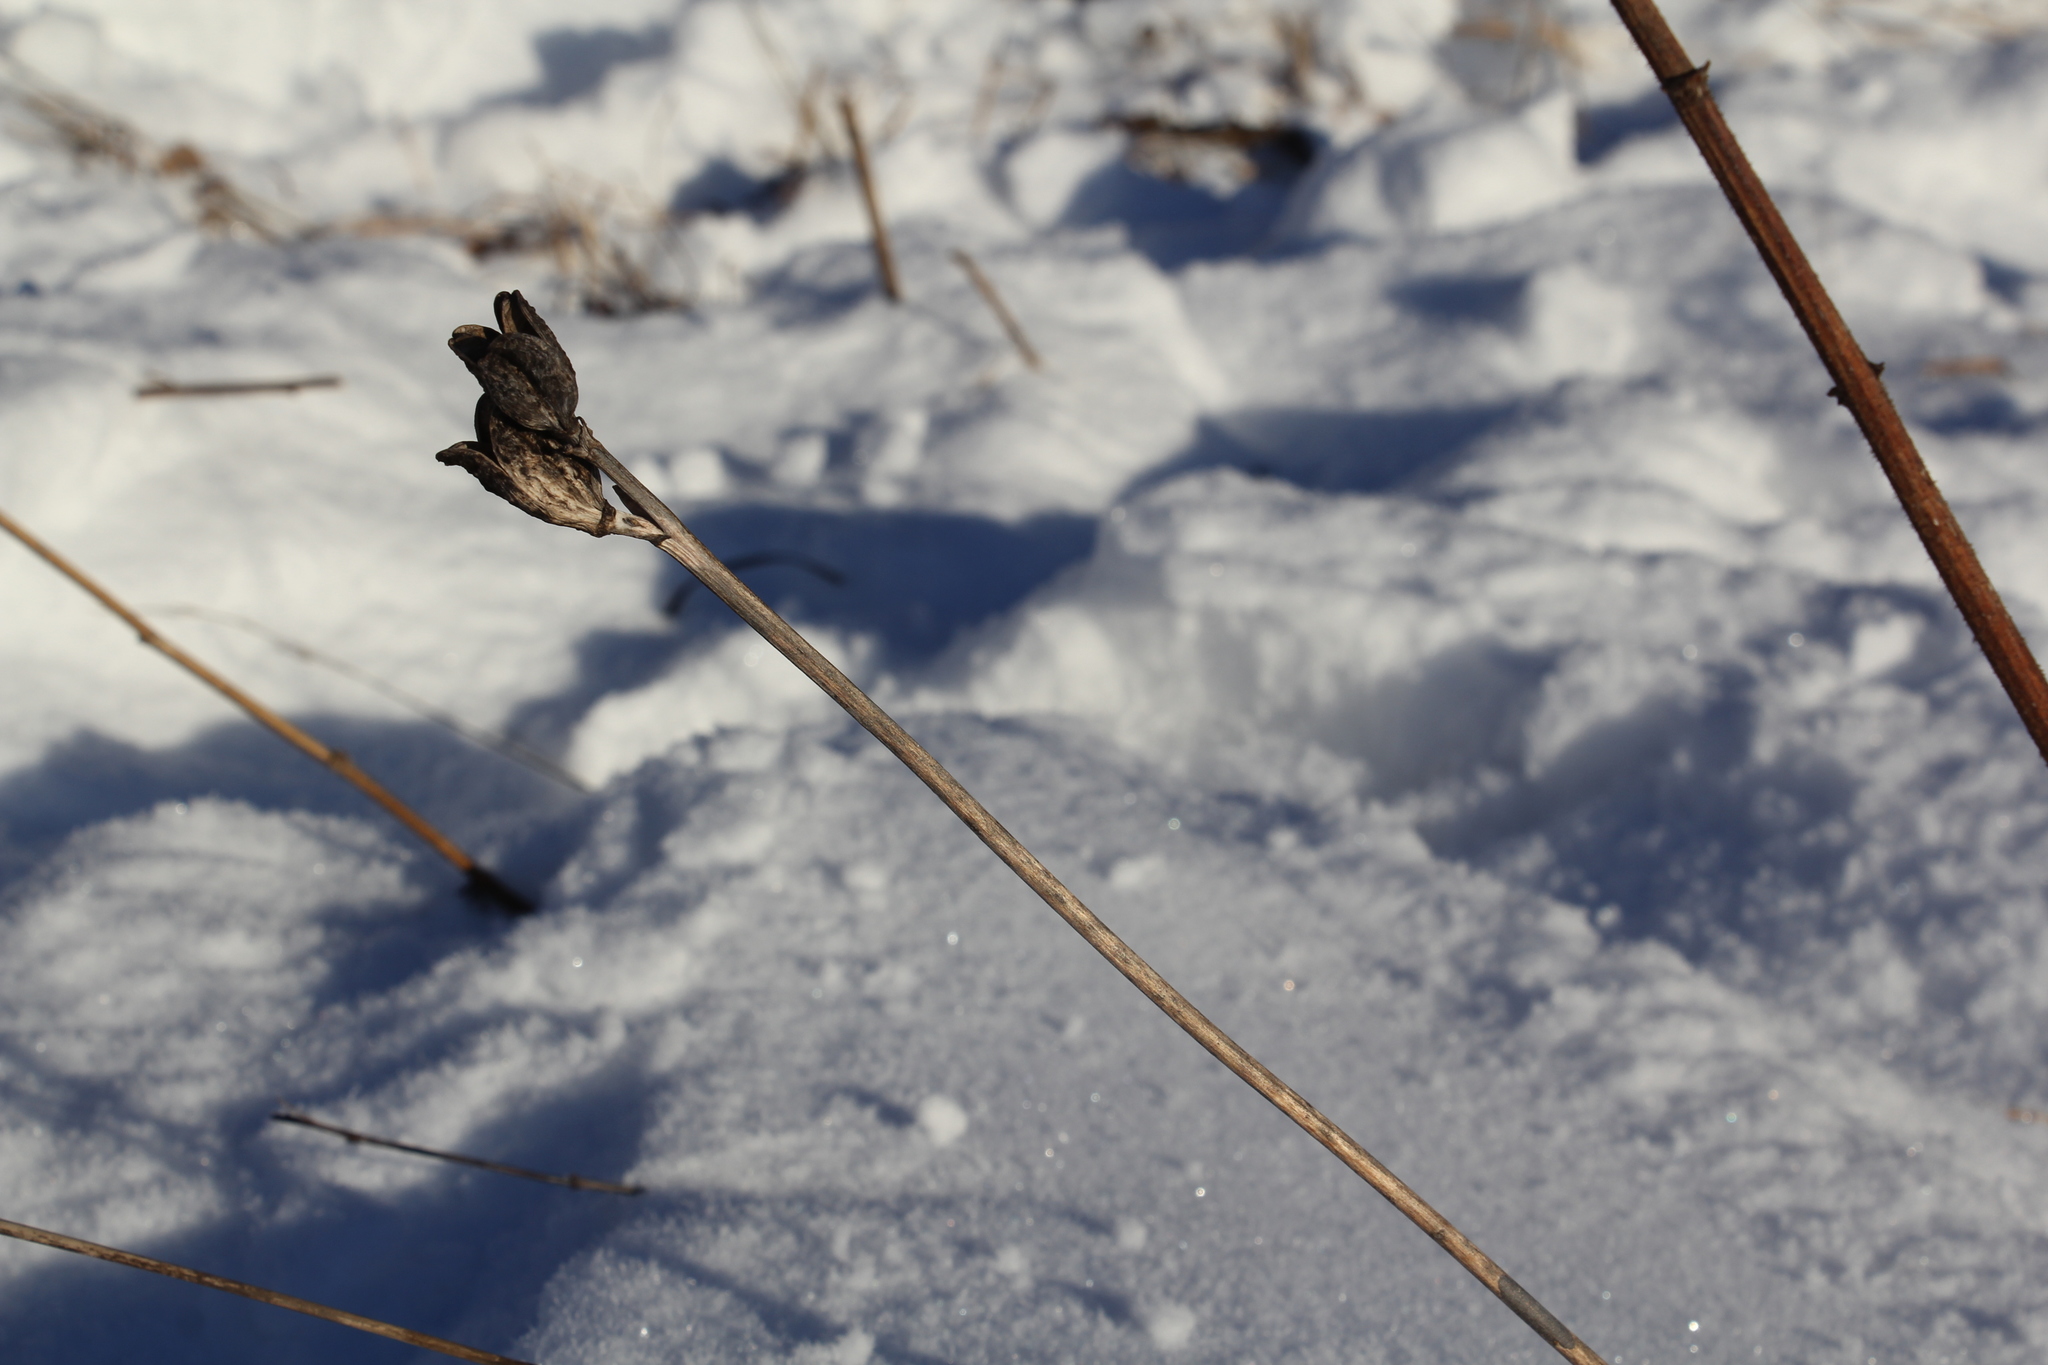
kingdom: Plantae
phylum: Tracheophyta
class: Liliopsida
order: Asparagales
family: Asphodelaceae
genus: Hemerocallis
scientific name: Hemerocallis minor
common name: Small daylily
